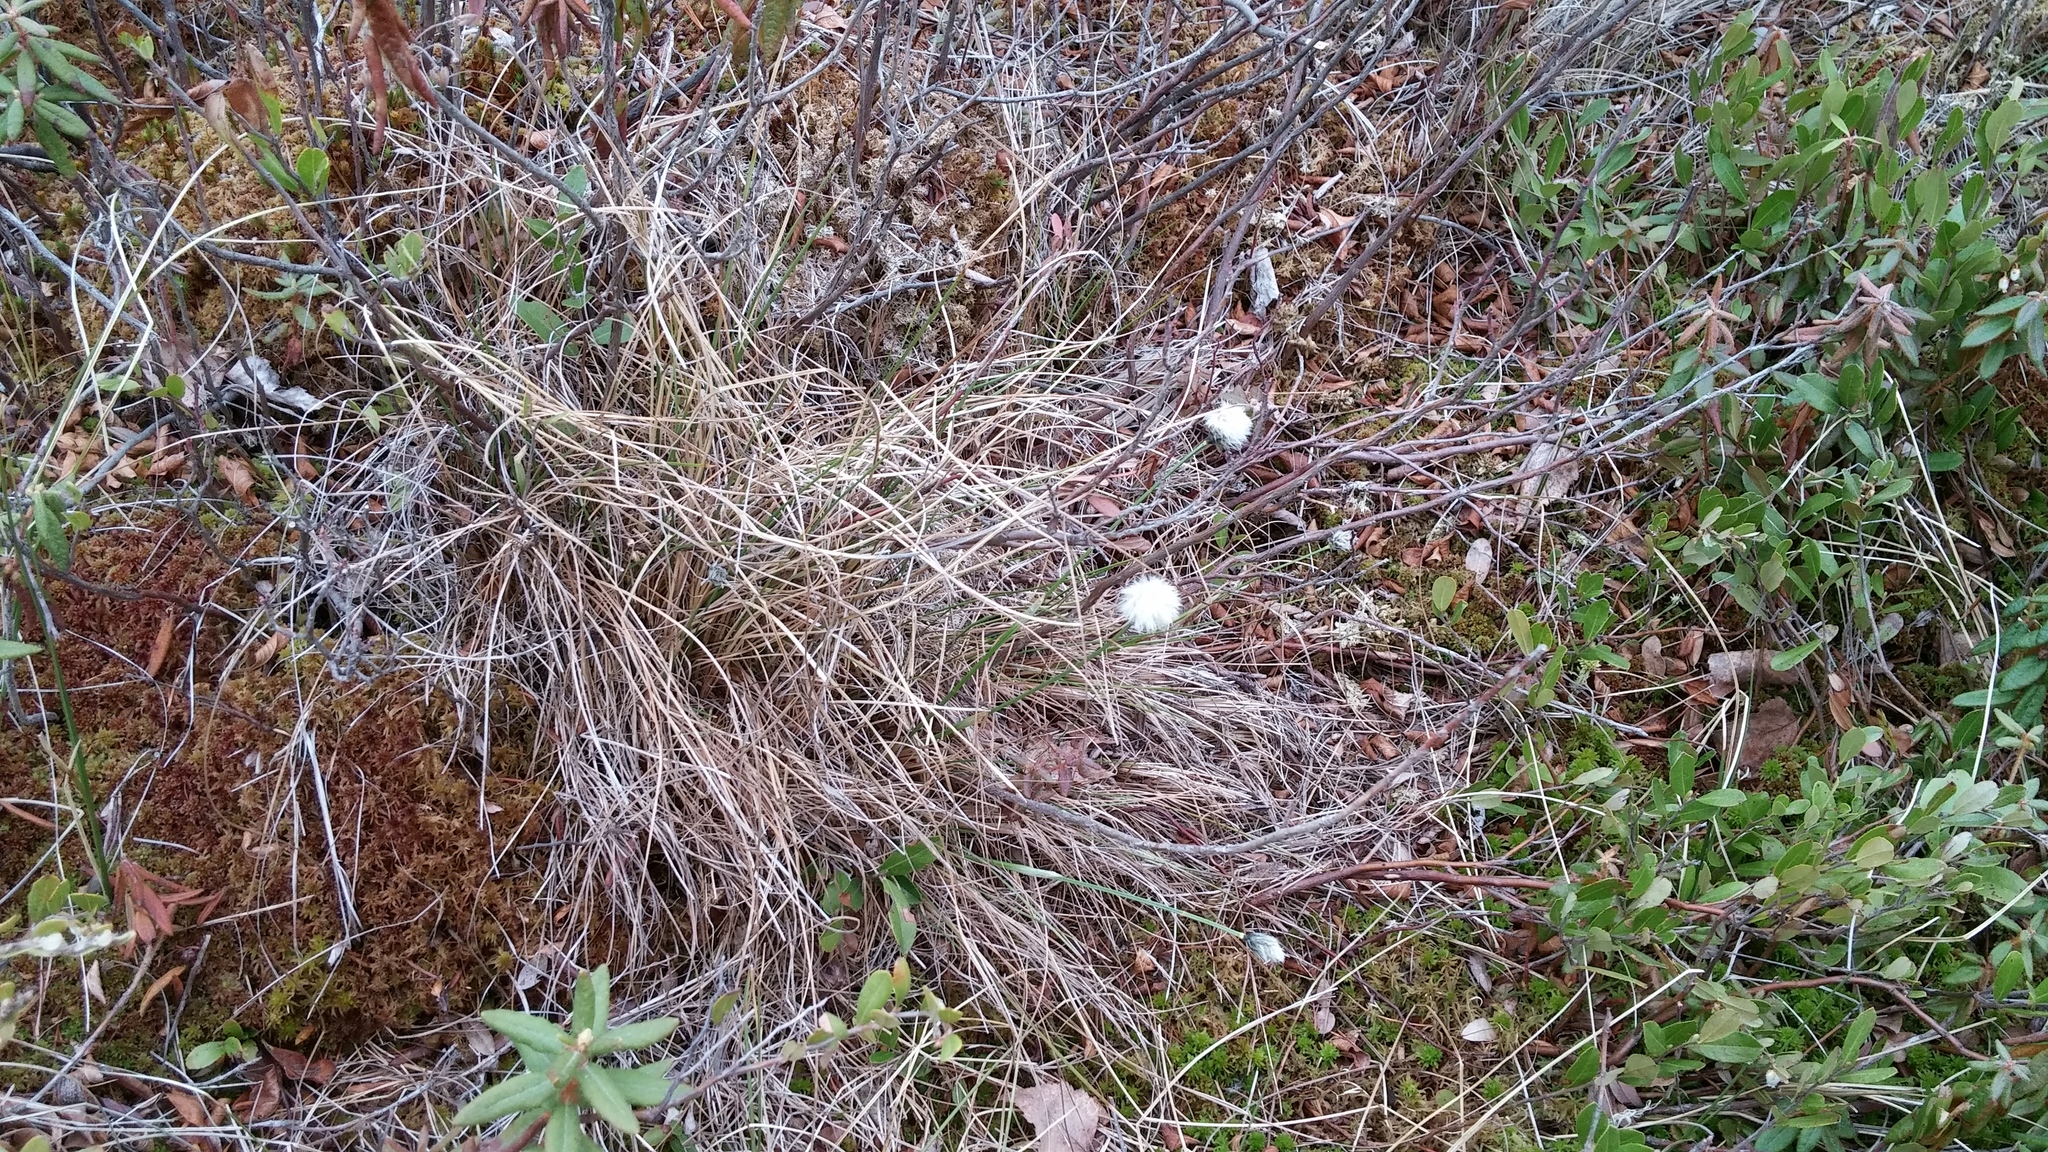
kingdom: Plantae
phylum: Tracheophyta
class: Liliopsida
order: Poales
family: Cyperaceae
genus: Eriophorum
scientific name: Eriophorum vaginatum
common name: Hare's-tail cottongrass
